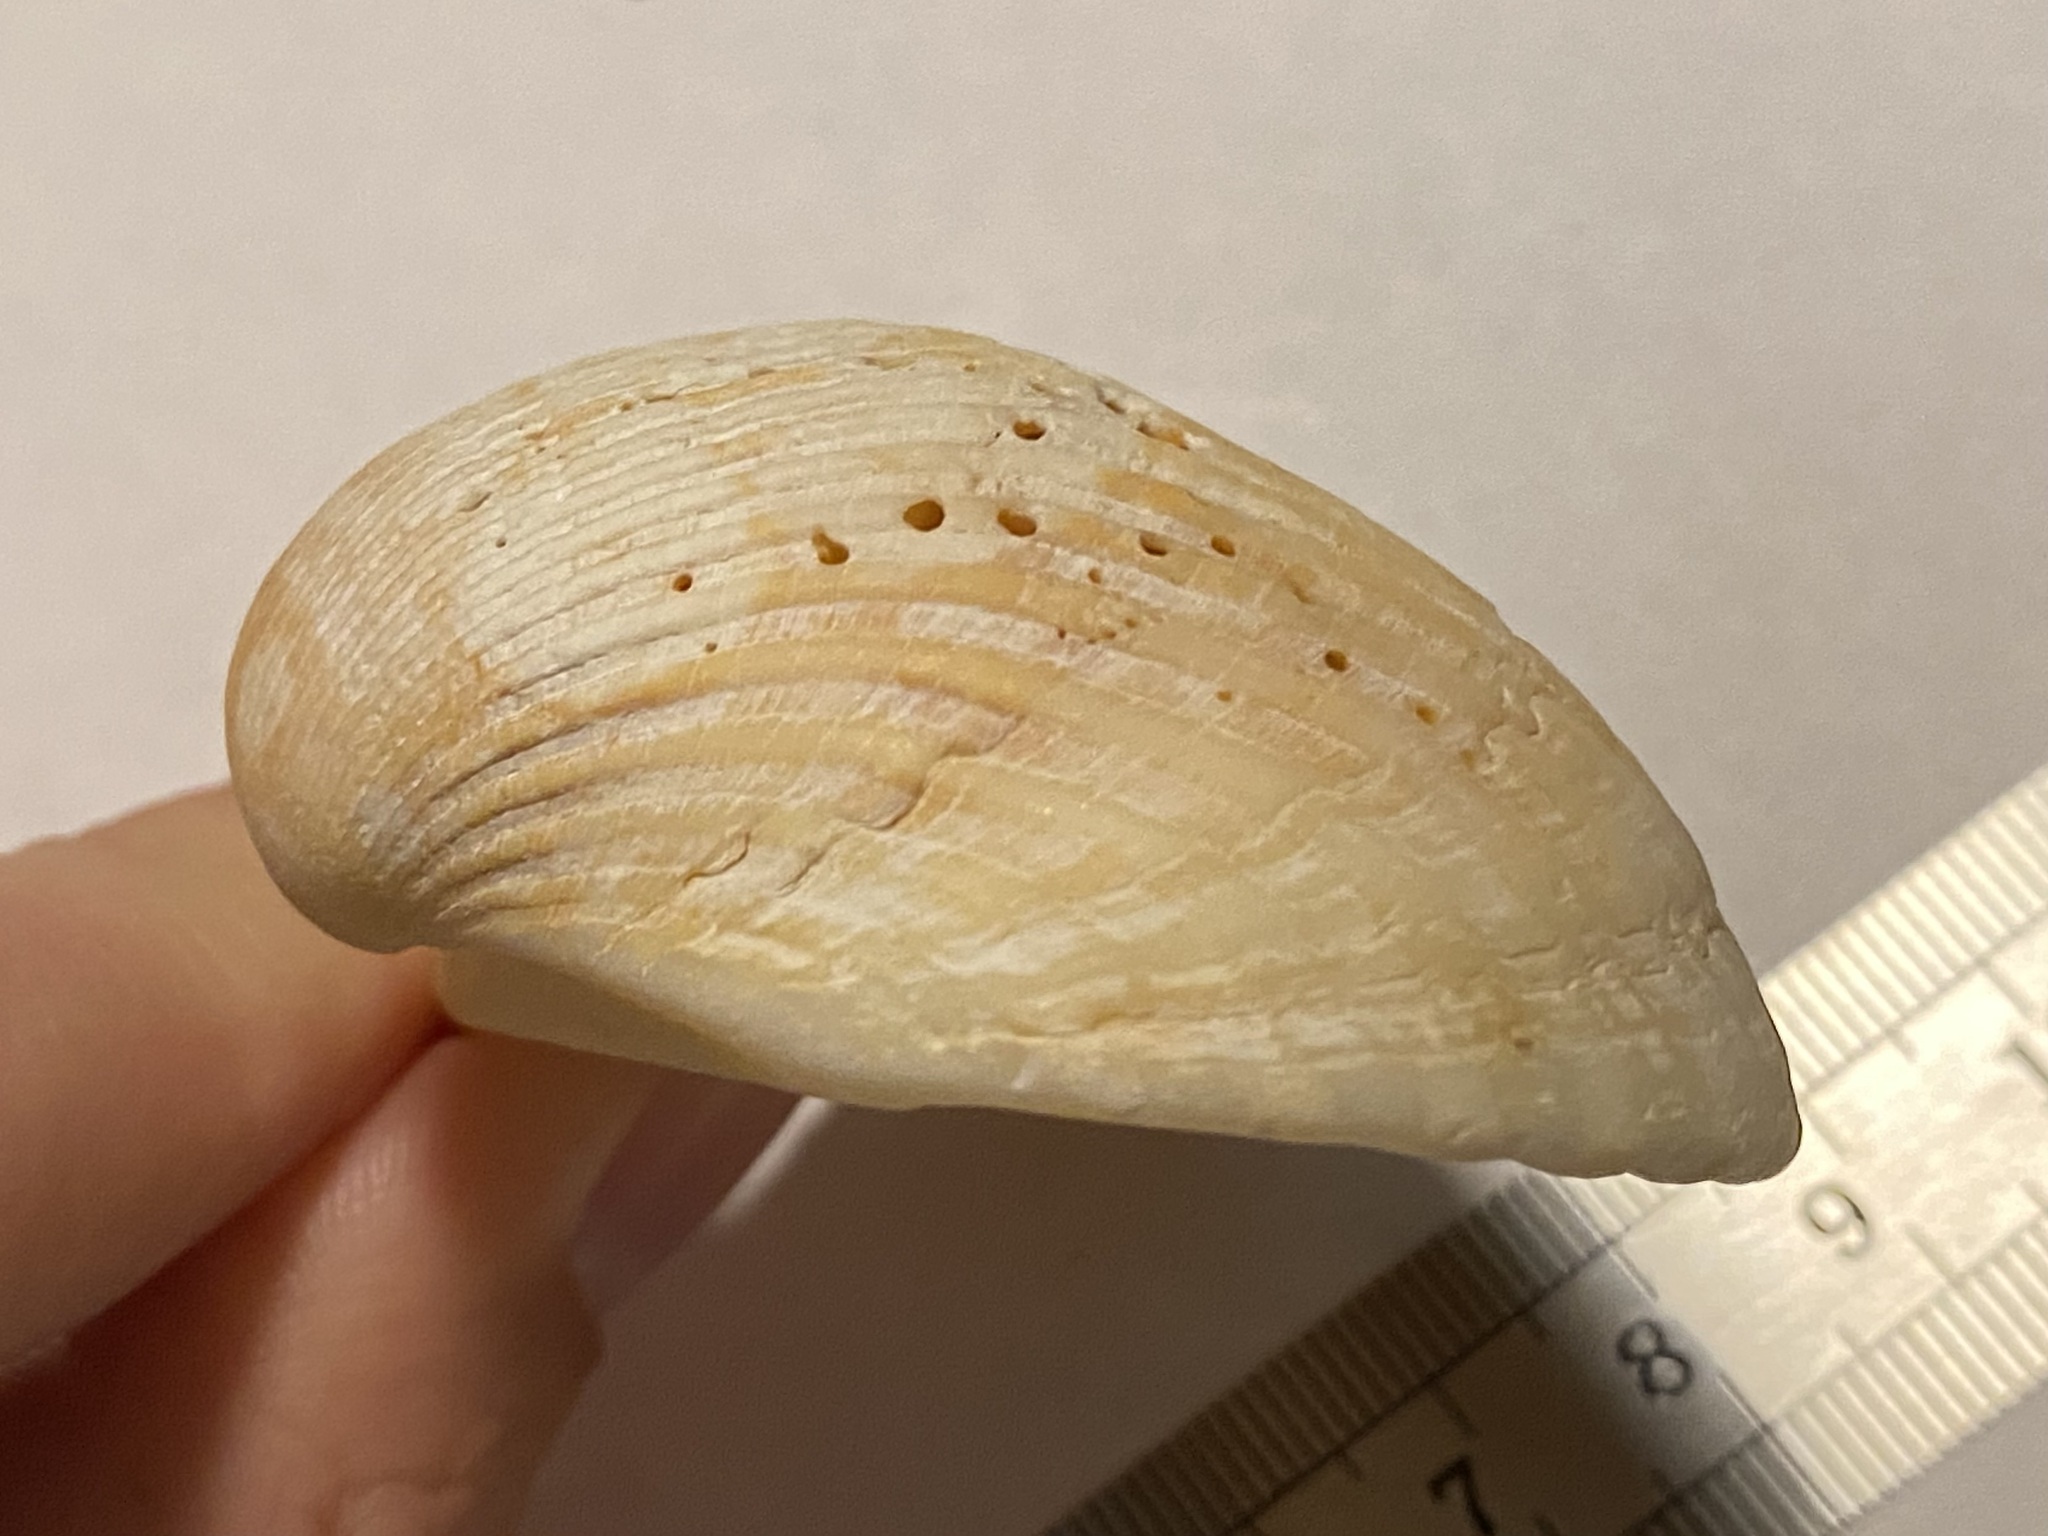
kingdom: Animalia
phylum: Mollusca
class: Bivalvia
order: Arcida
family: Noetiidae
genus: Noetia
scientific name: Noetia ponderosa
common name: Ponderous ark
